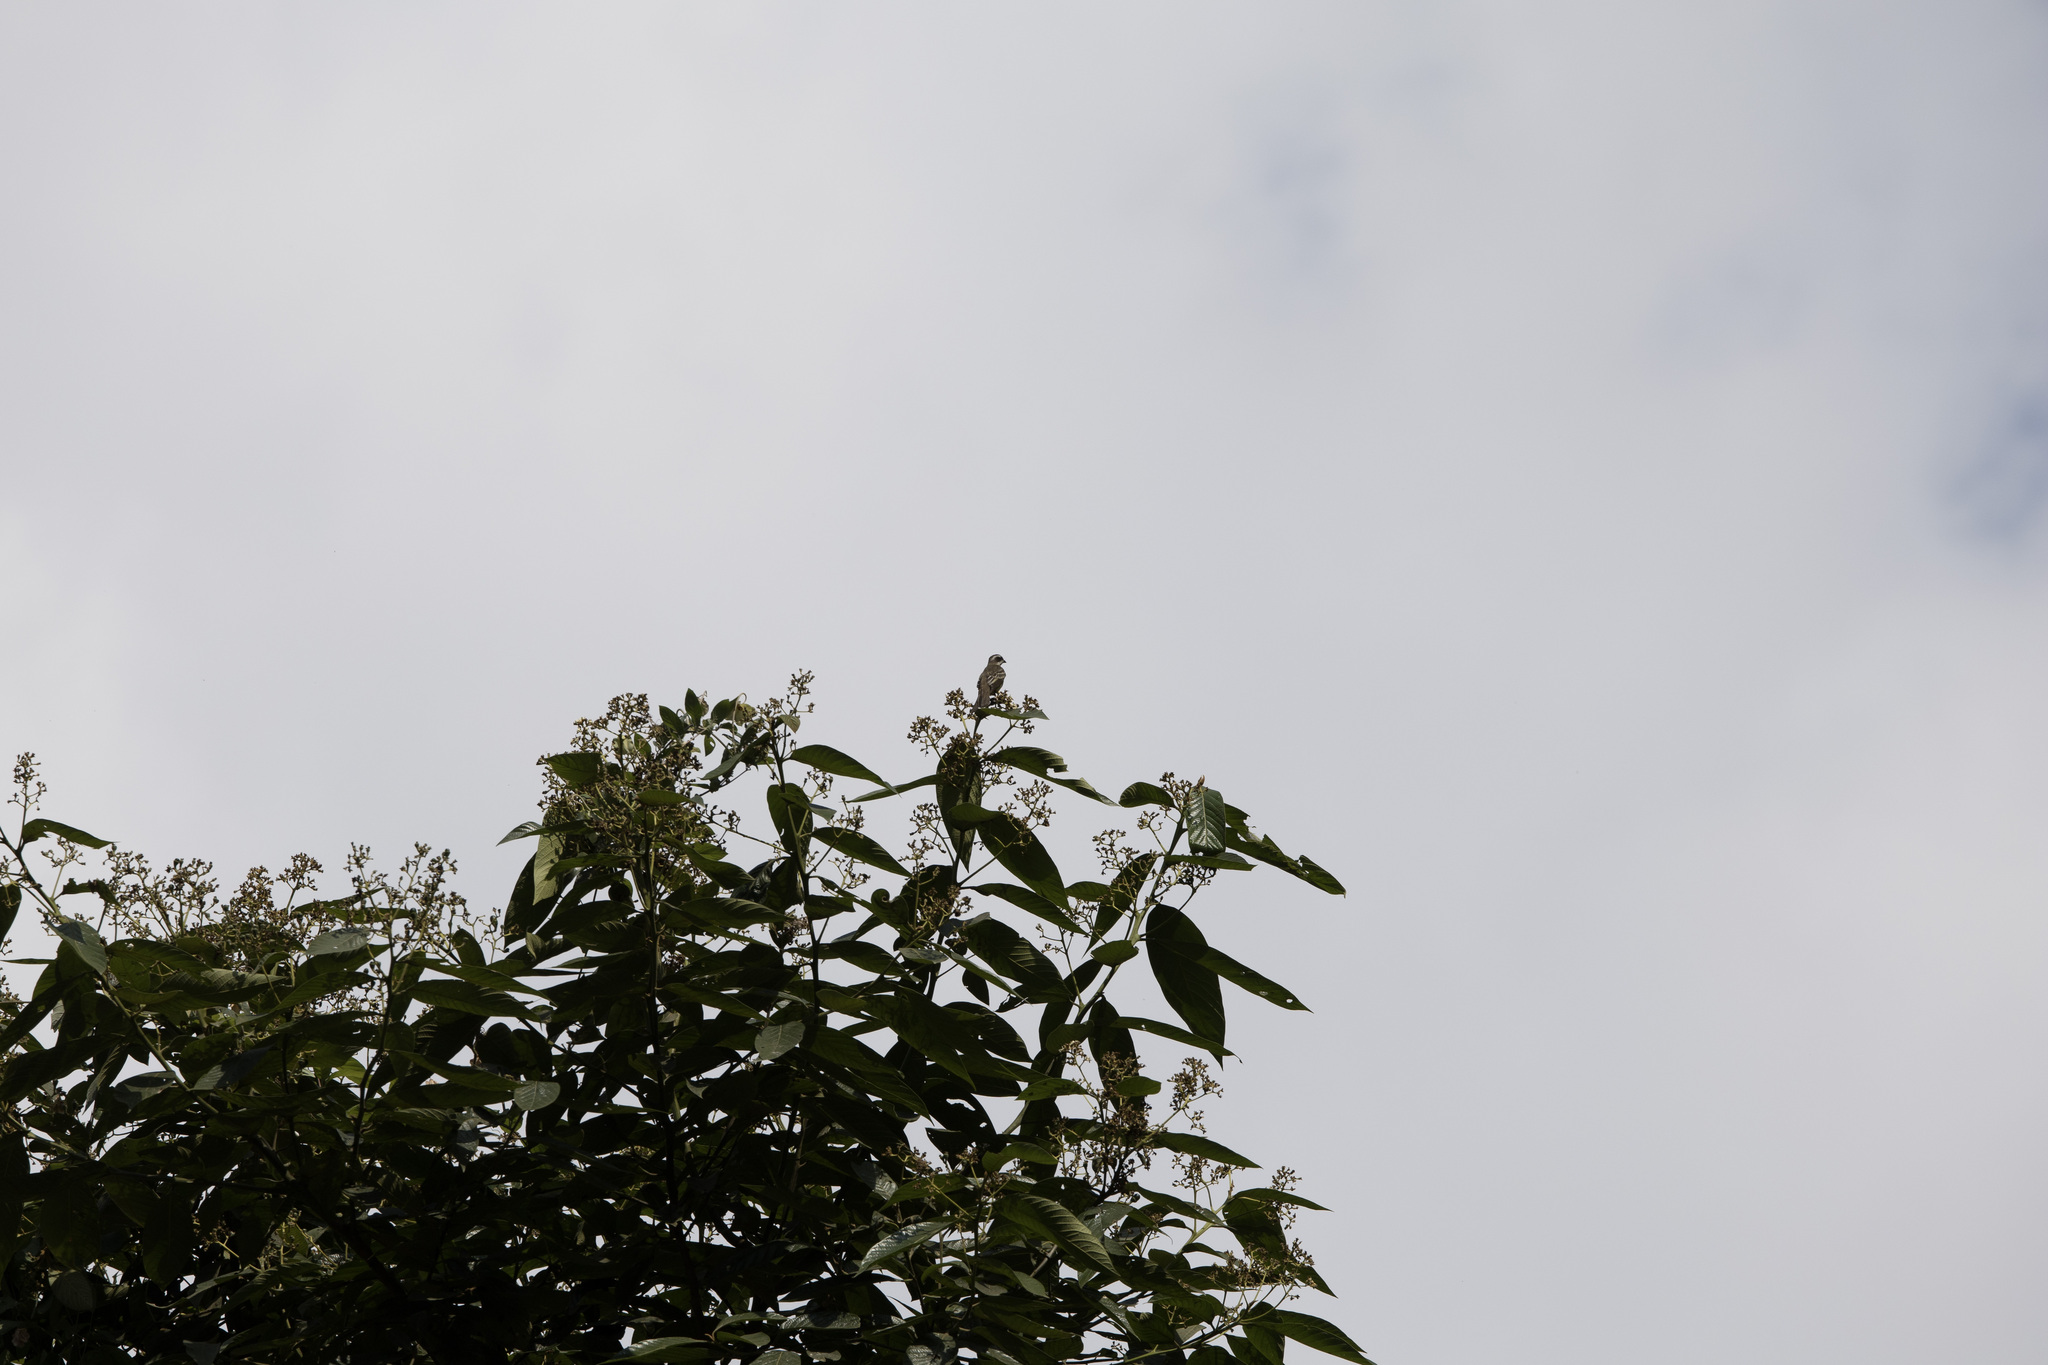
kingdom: Animalia
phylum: Chordata
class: Aves
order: Passeriformes
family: Tyrannidae
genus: Legatus
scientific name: Legatus leucophaius
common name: Piratic flycatcher
